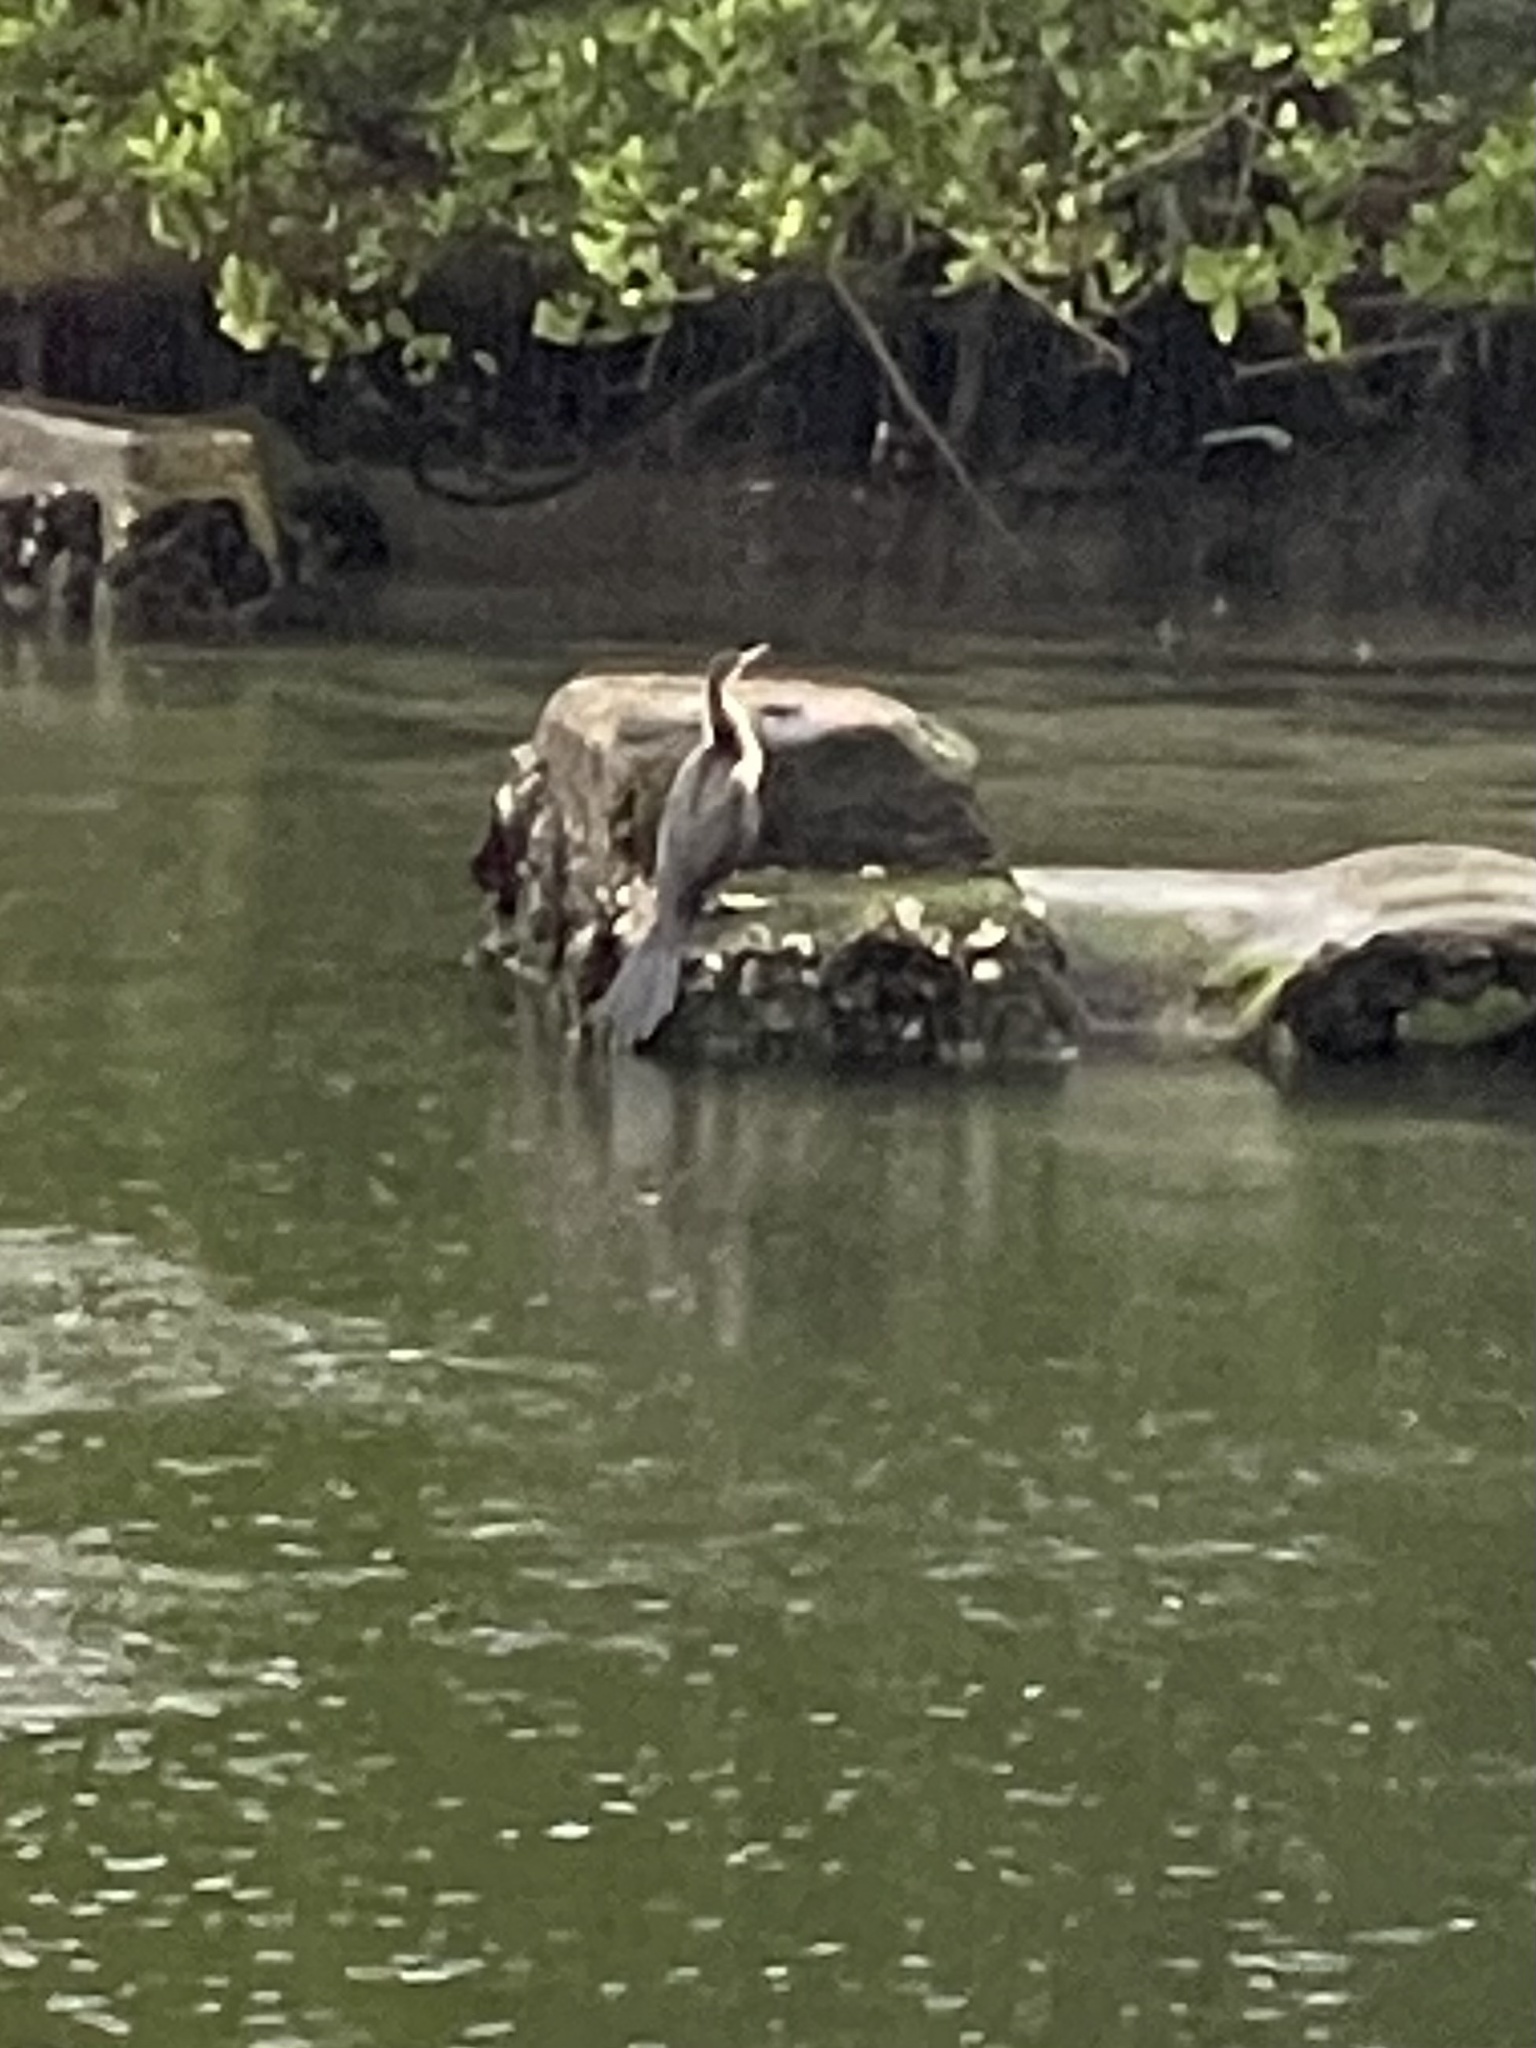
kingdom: Animalia
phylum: Chordata
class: Aves
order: Suliformes
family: Anhingidae
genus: Anhinga
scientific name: Anhinga anhinga
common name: Anhinga
